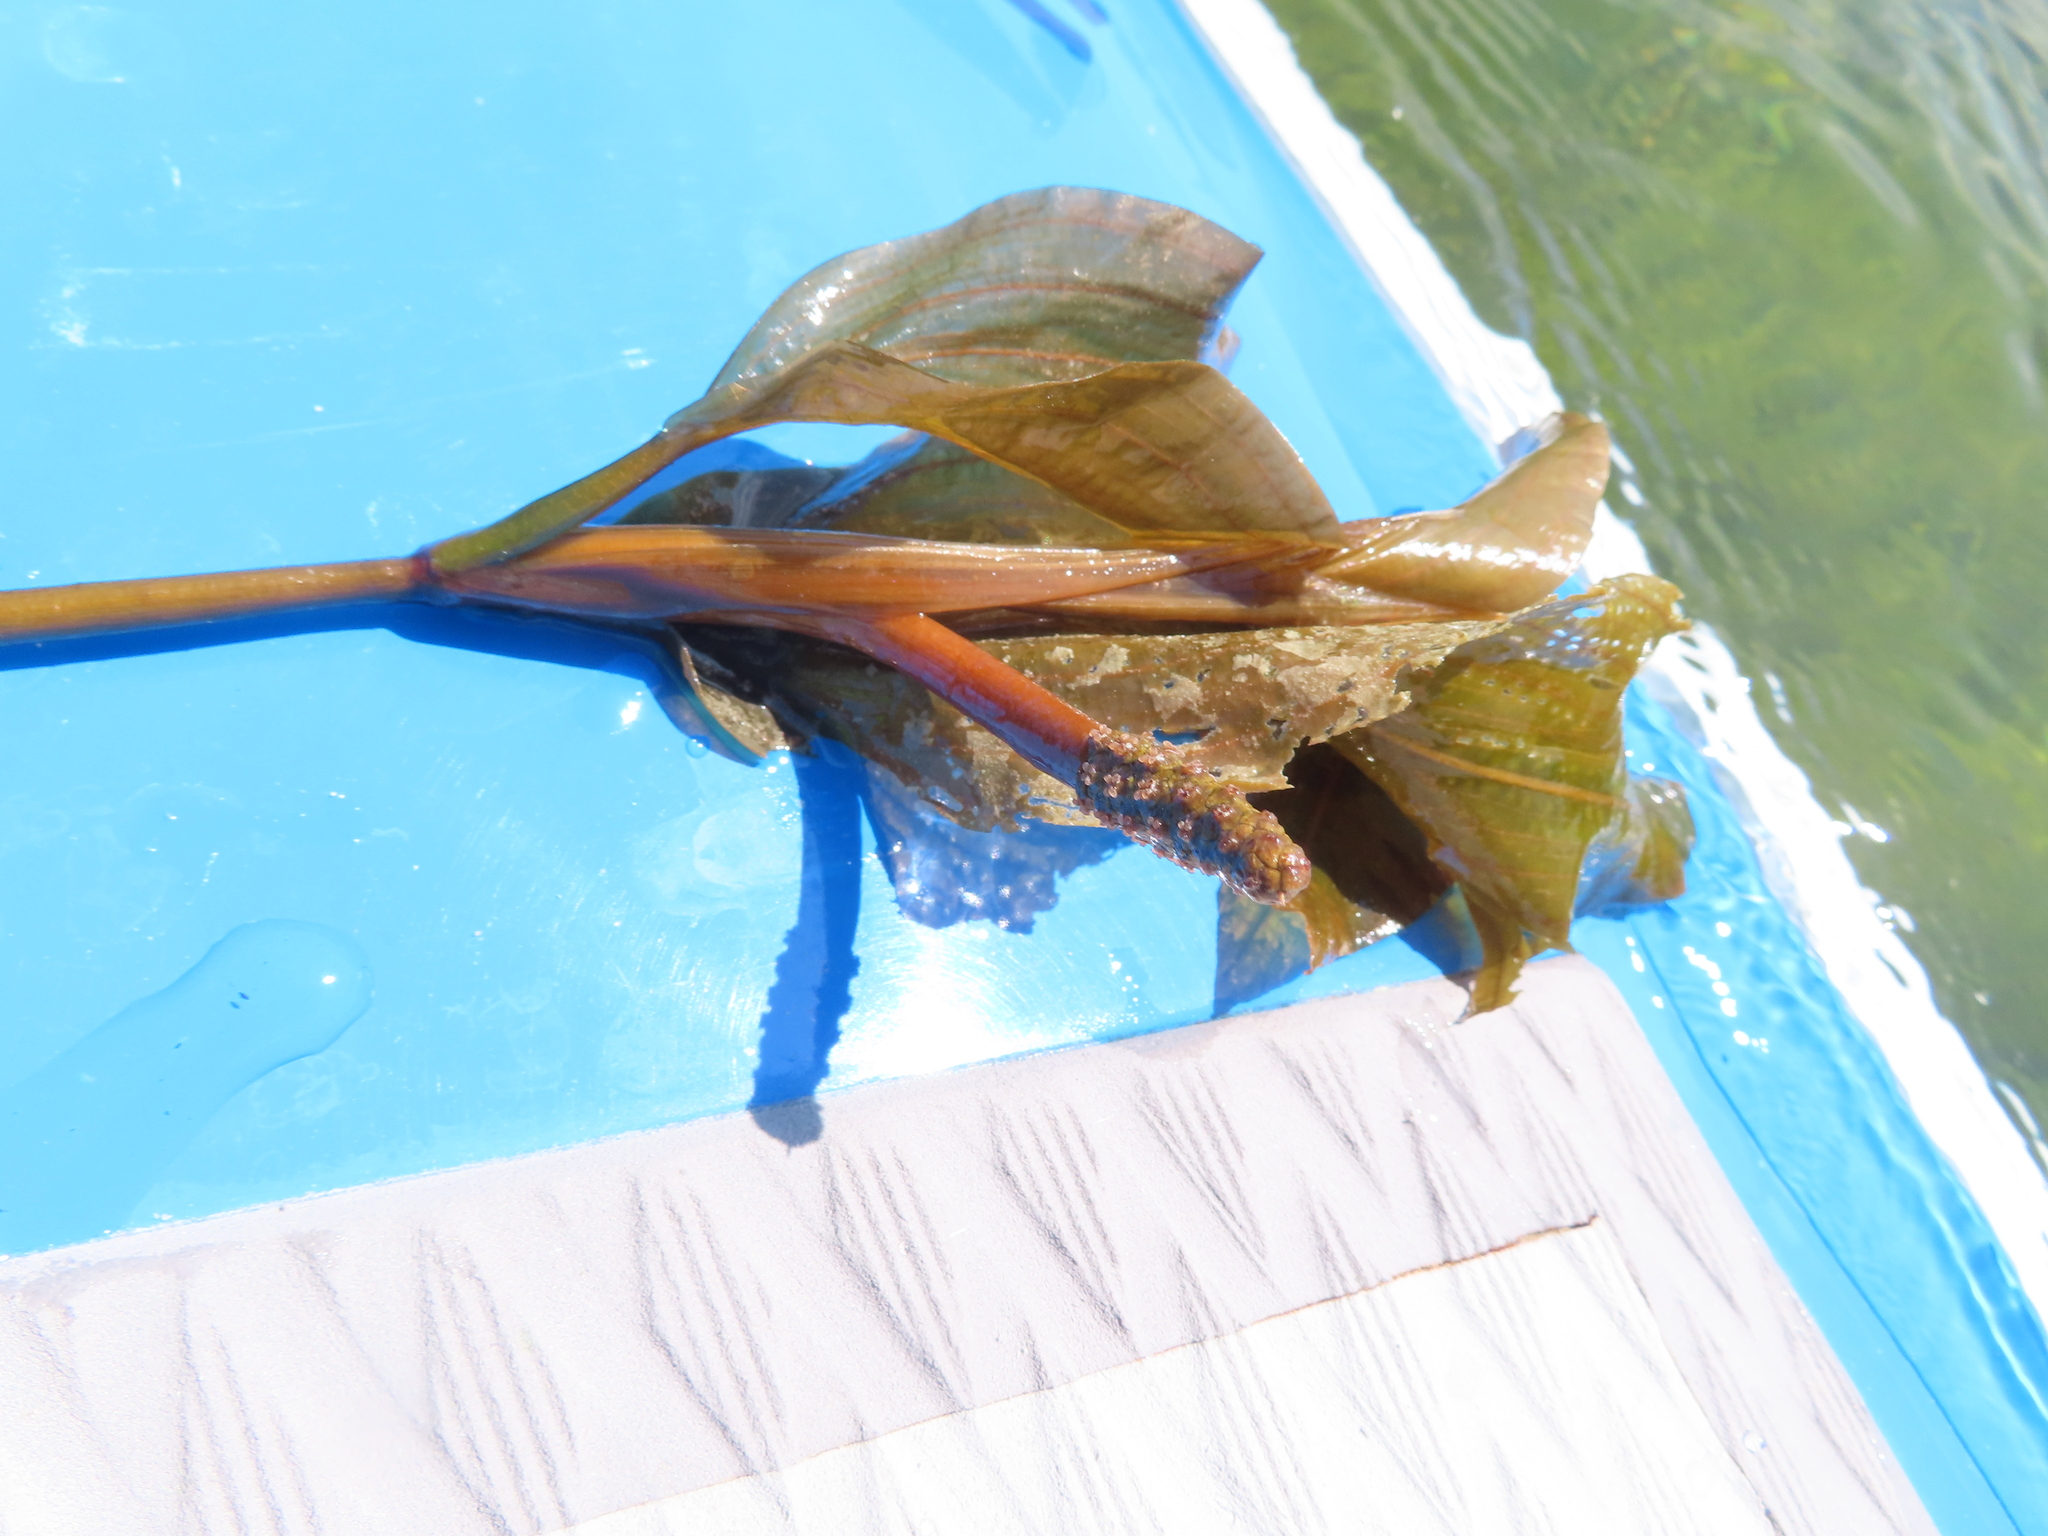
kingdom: Plantae
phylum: Tracheophyta
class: Liliopsida
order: Alismatales
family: Potamogetonaceae
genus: Potamogeton
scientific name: Potamogeton amplifolius
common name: Broad-leaved pondweed
